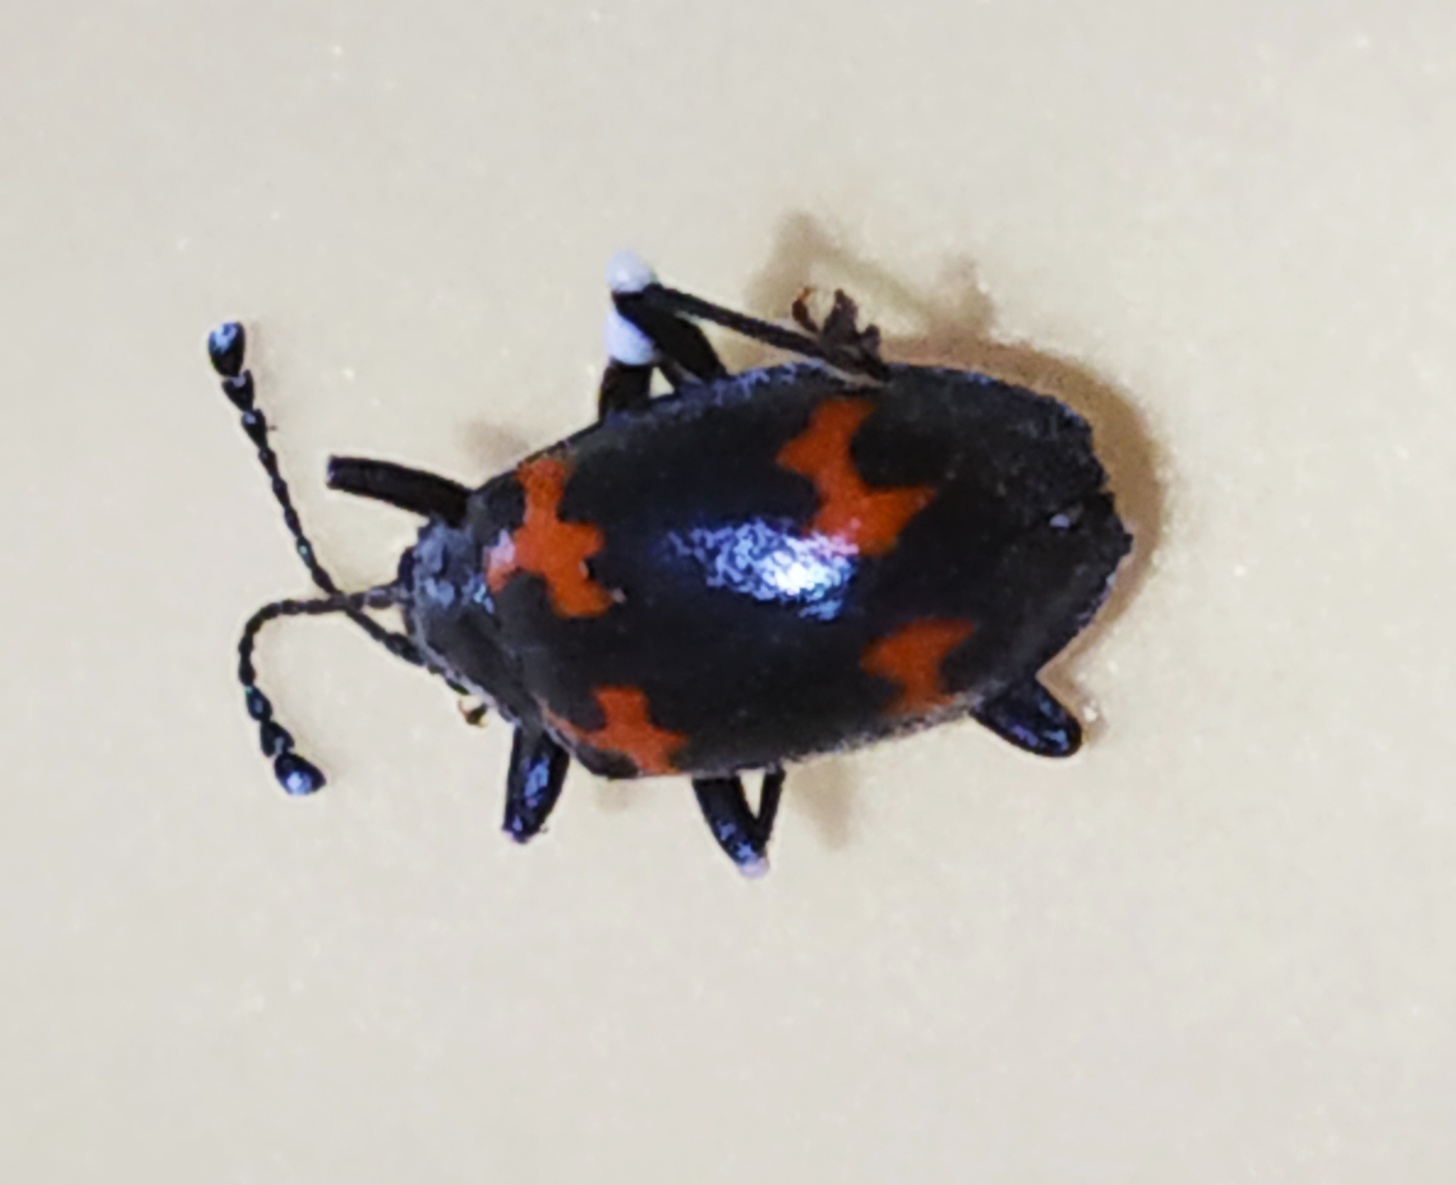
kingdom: Animalia
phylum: Arthropoda
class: Insecta
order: Coleoptera
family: Endomychidae
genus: Parindalmus
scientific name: Parindalmus
